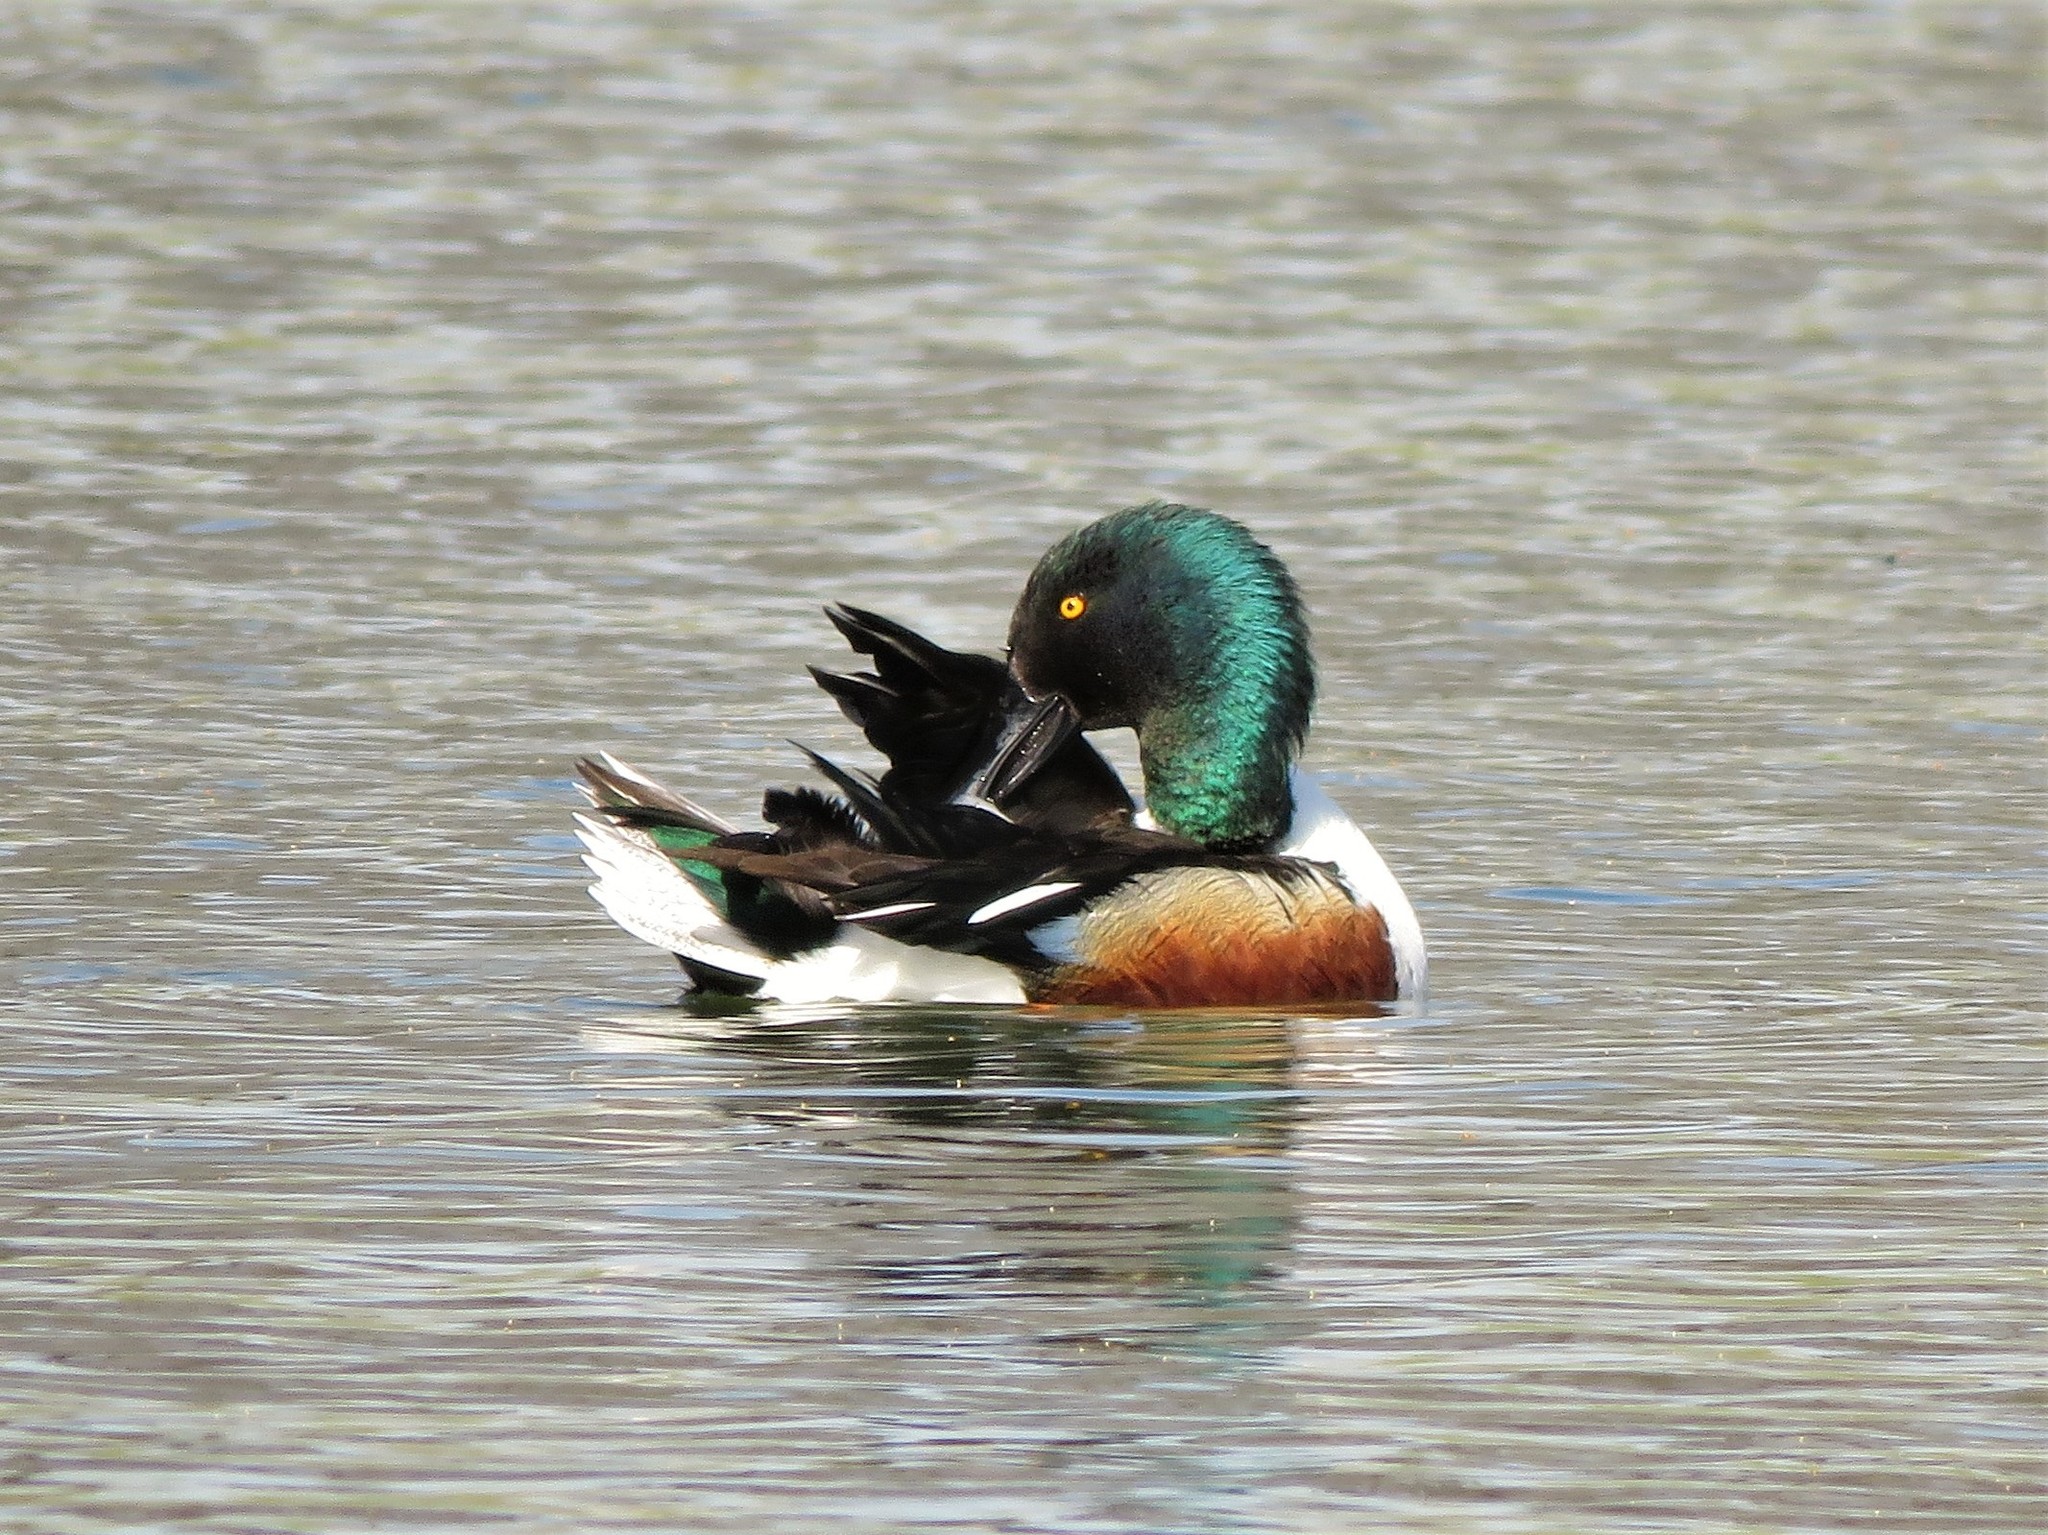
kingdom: Animalia
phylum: Chordata
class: Aves
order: Anseriformes
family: Anatidae
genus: Spatula
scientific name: Spatula clypeata
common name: Northern shoveler
